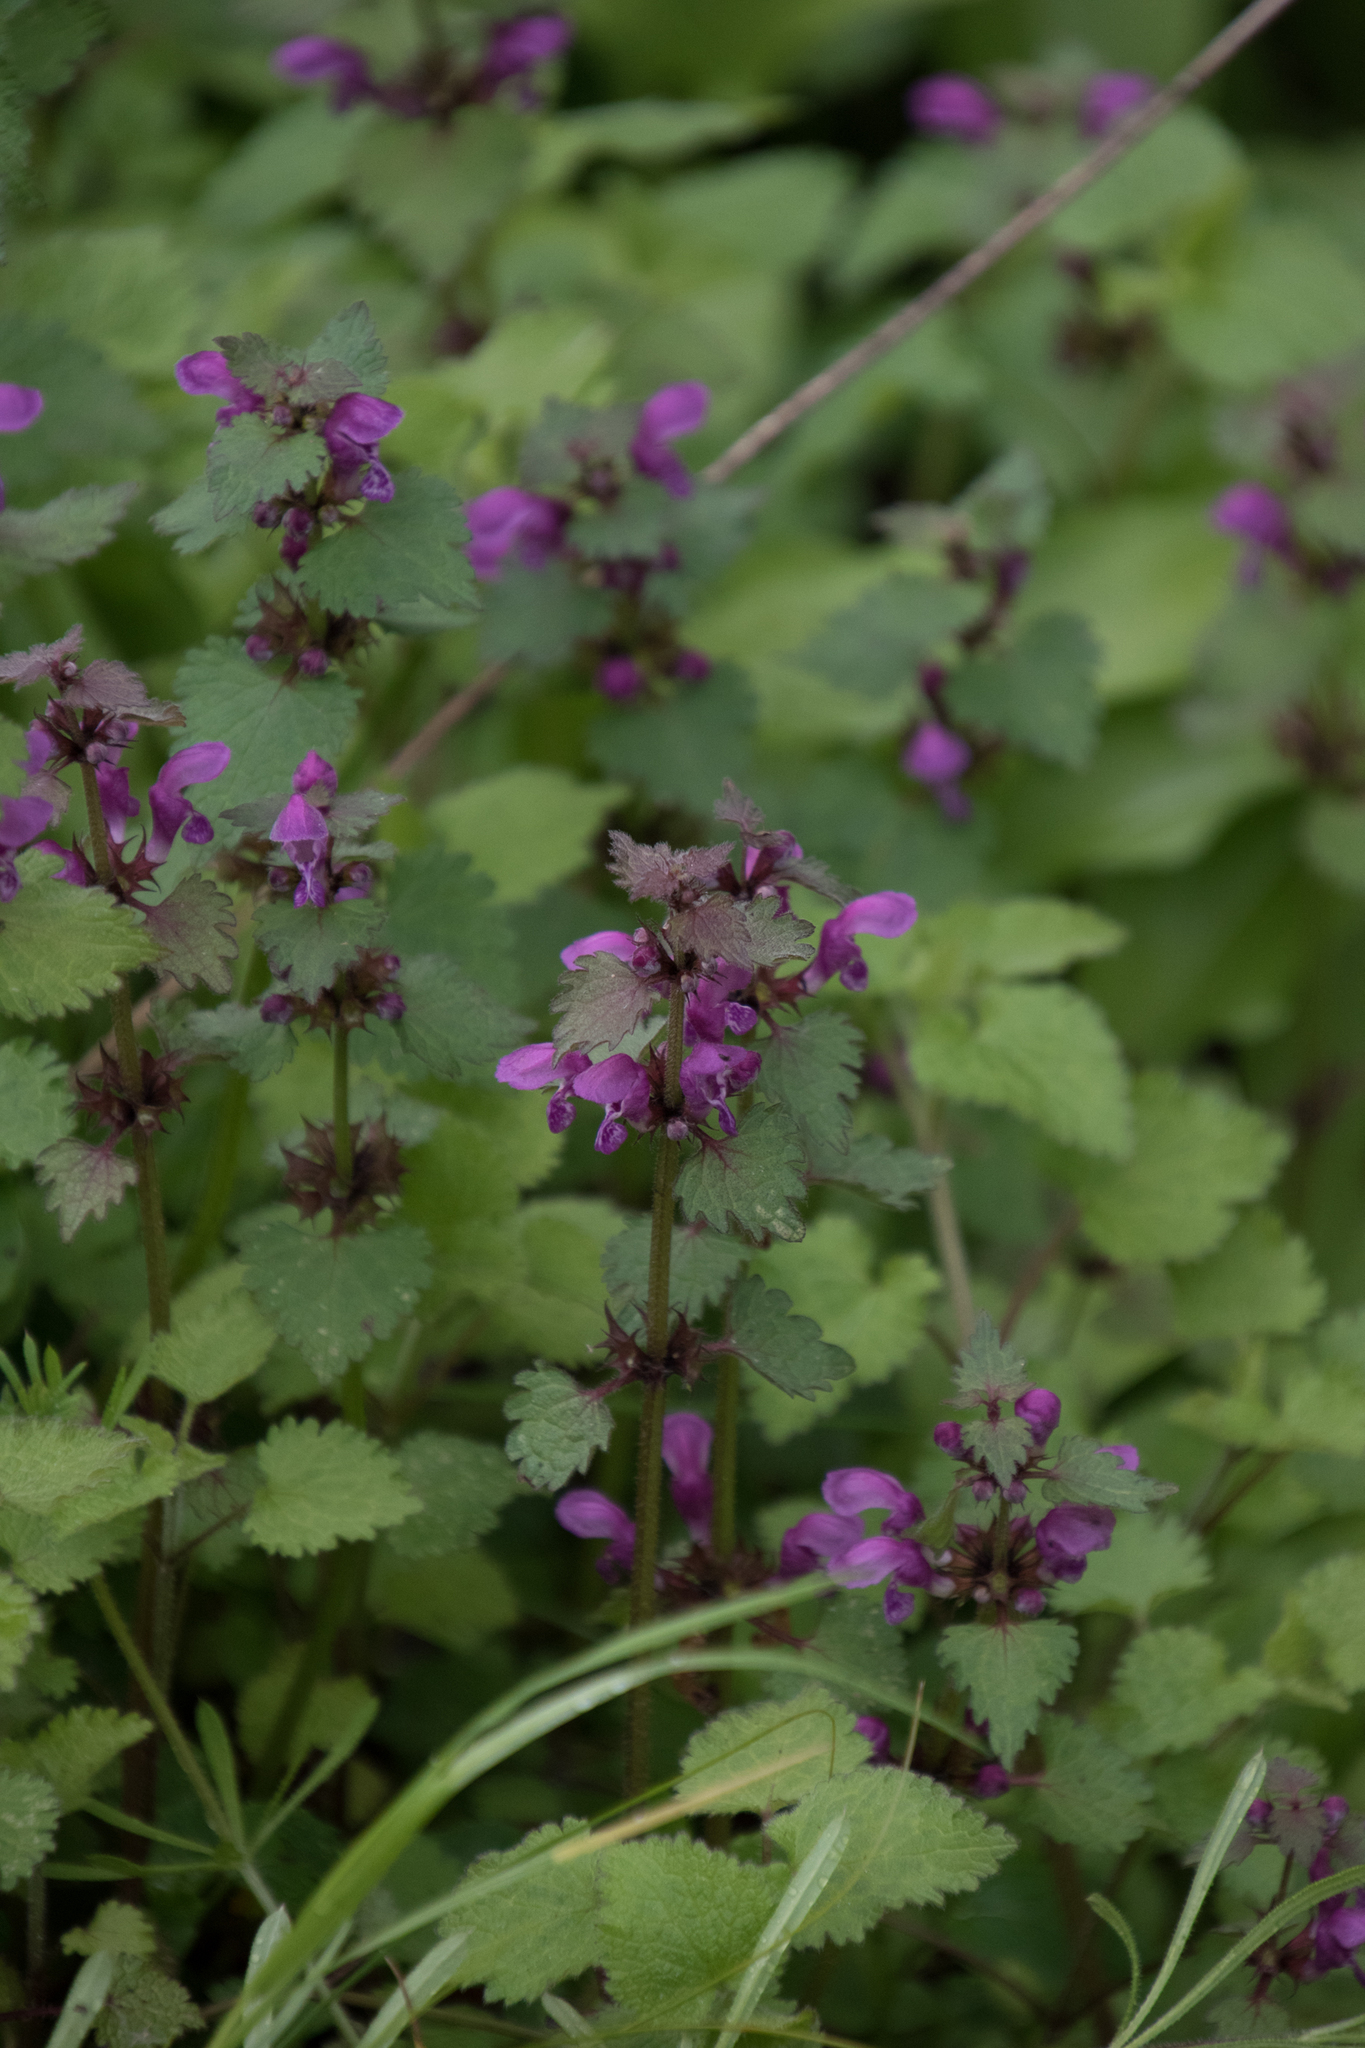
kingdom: Plantae
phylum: Tracheophyta
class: Magnoliopsida
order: Lamiales
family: Lamiaceae
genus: Lamium
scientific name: Lamium maculatum
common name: Spotted dead-nettle
